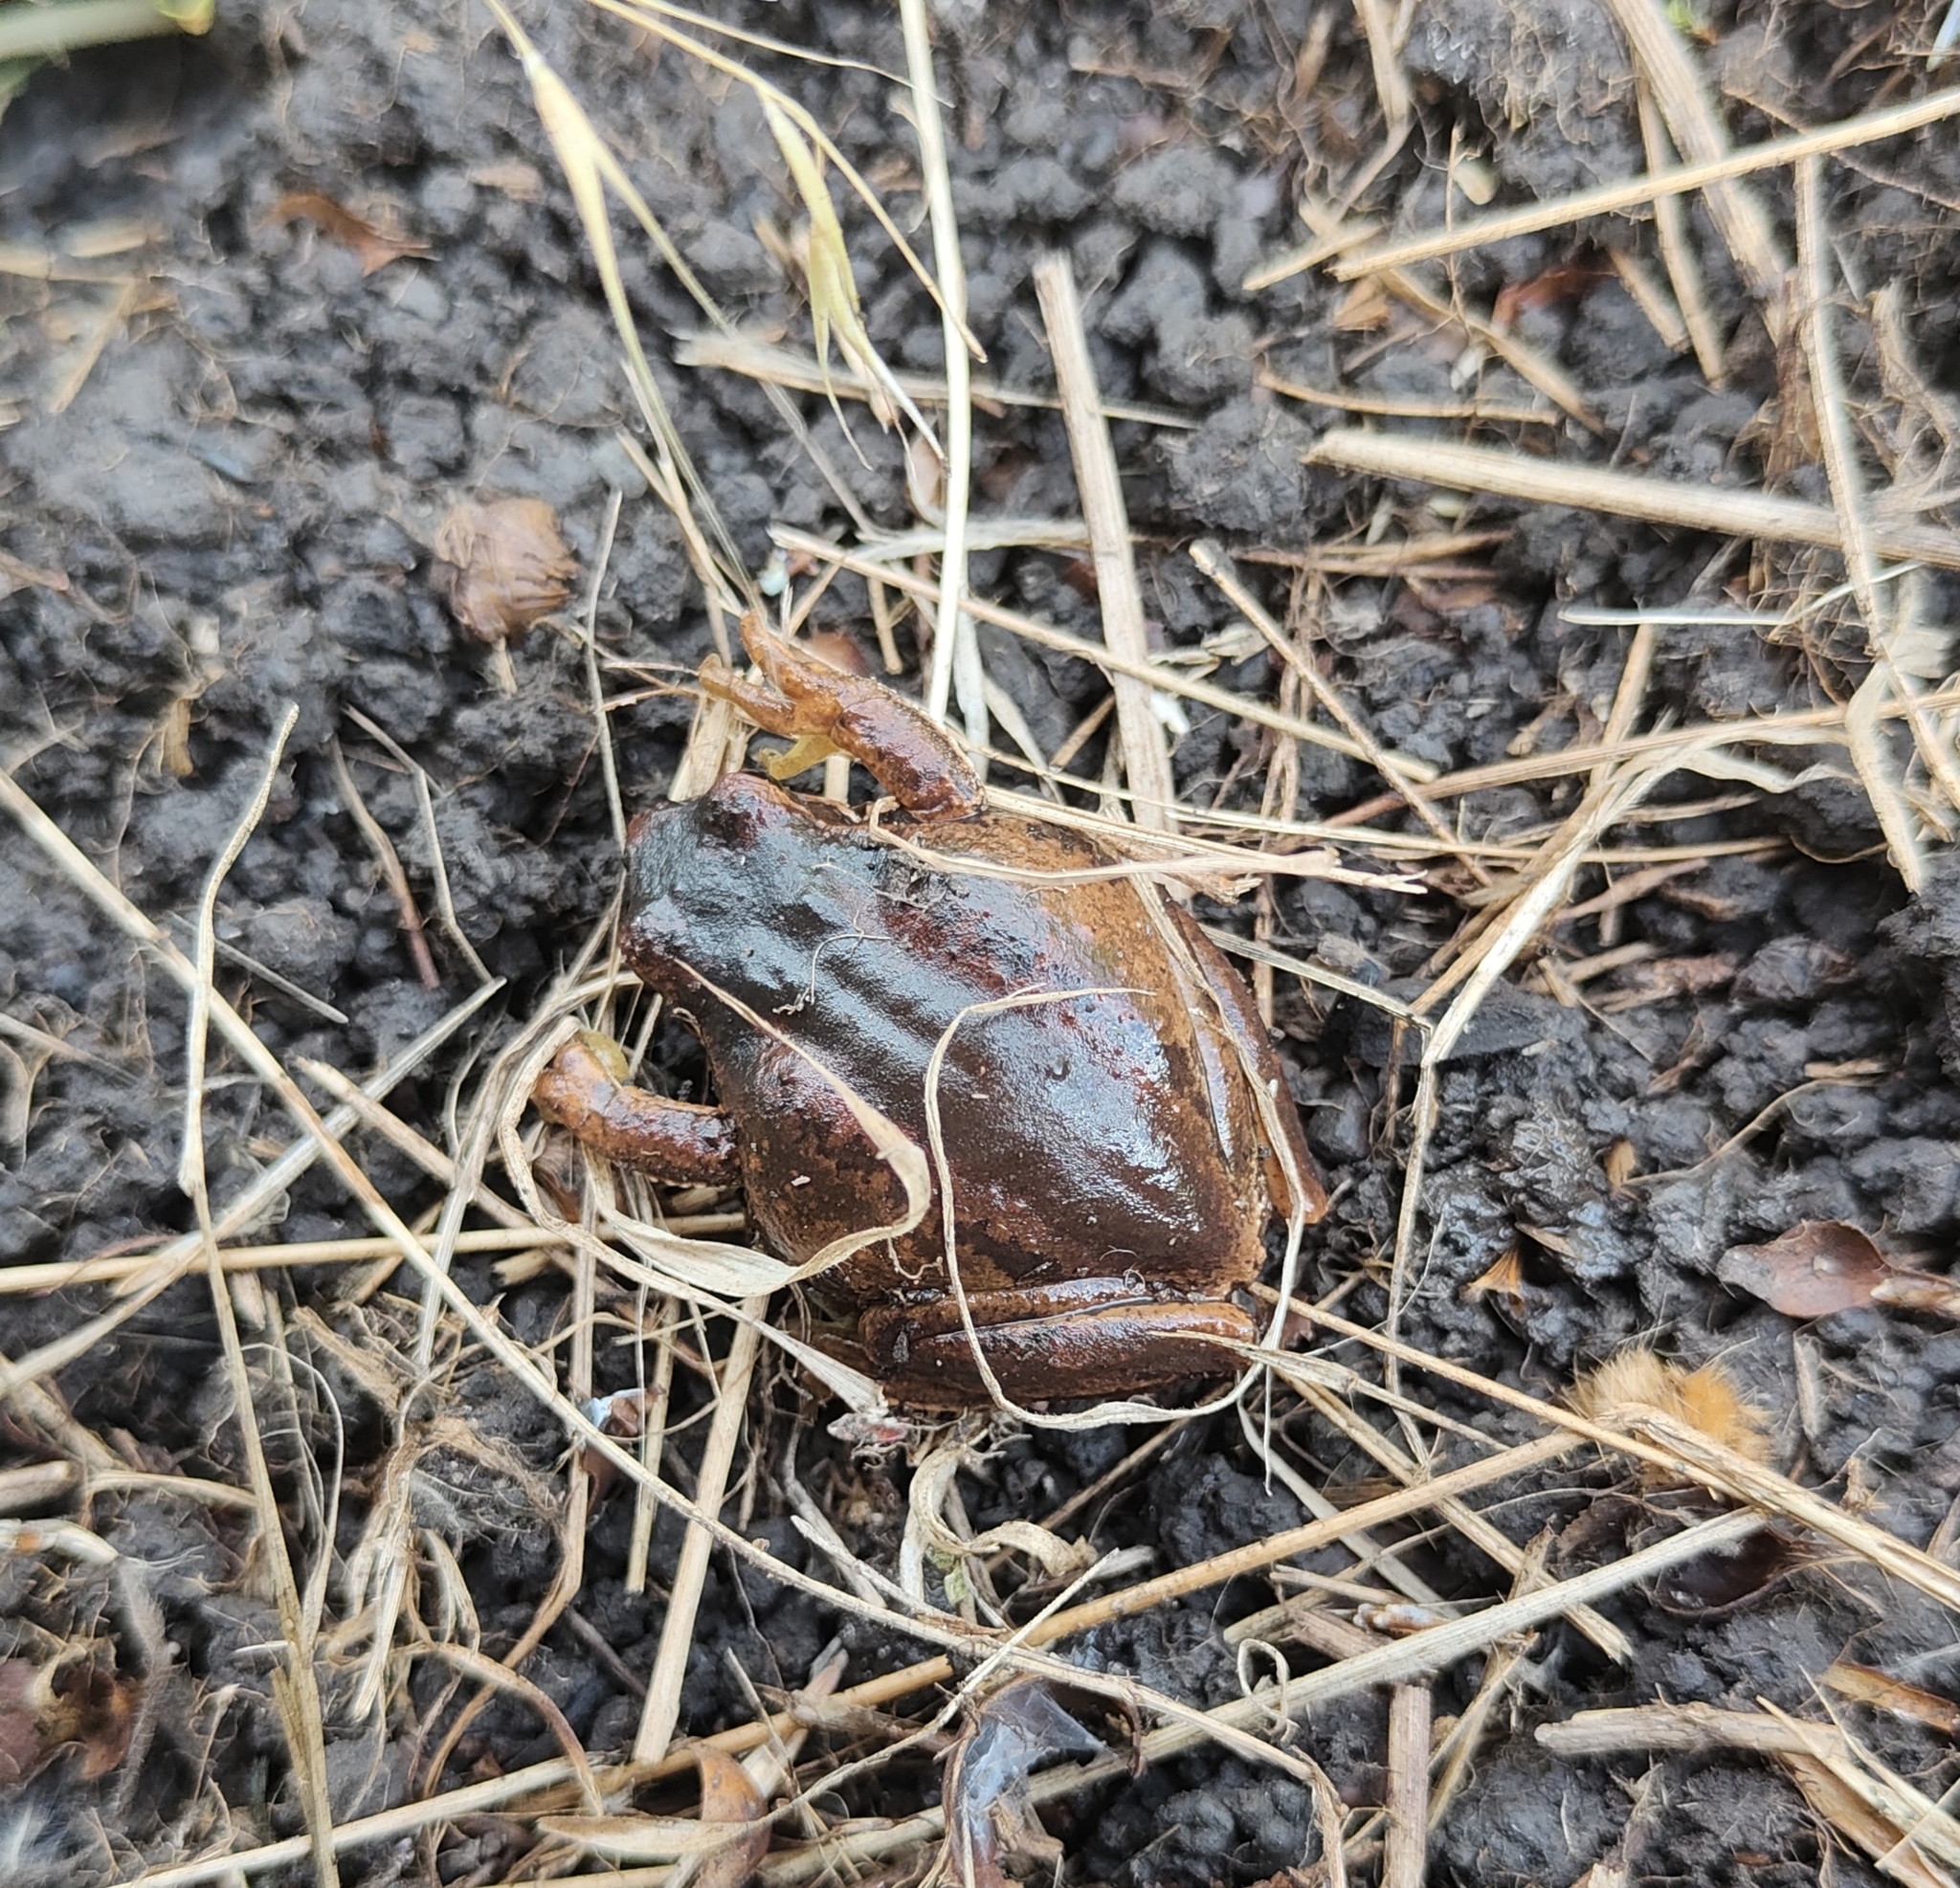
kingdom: Animalia
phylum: Chordata
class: Amphibia
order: Anura
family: Pelodryadidae
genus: Litoria
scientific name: Litoria ewingii
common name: Southern brown tree frog
